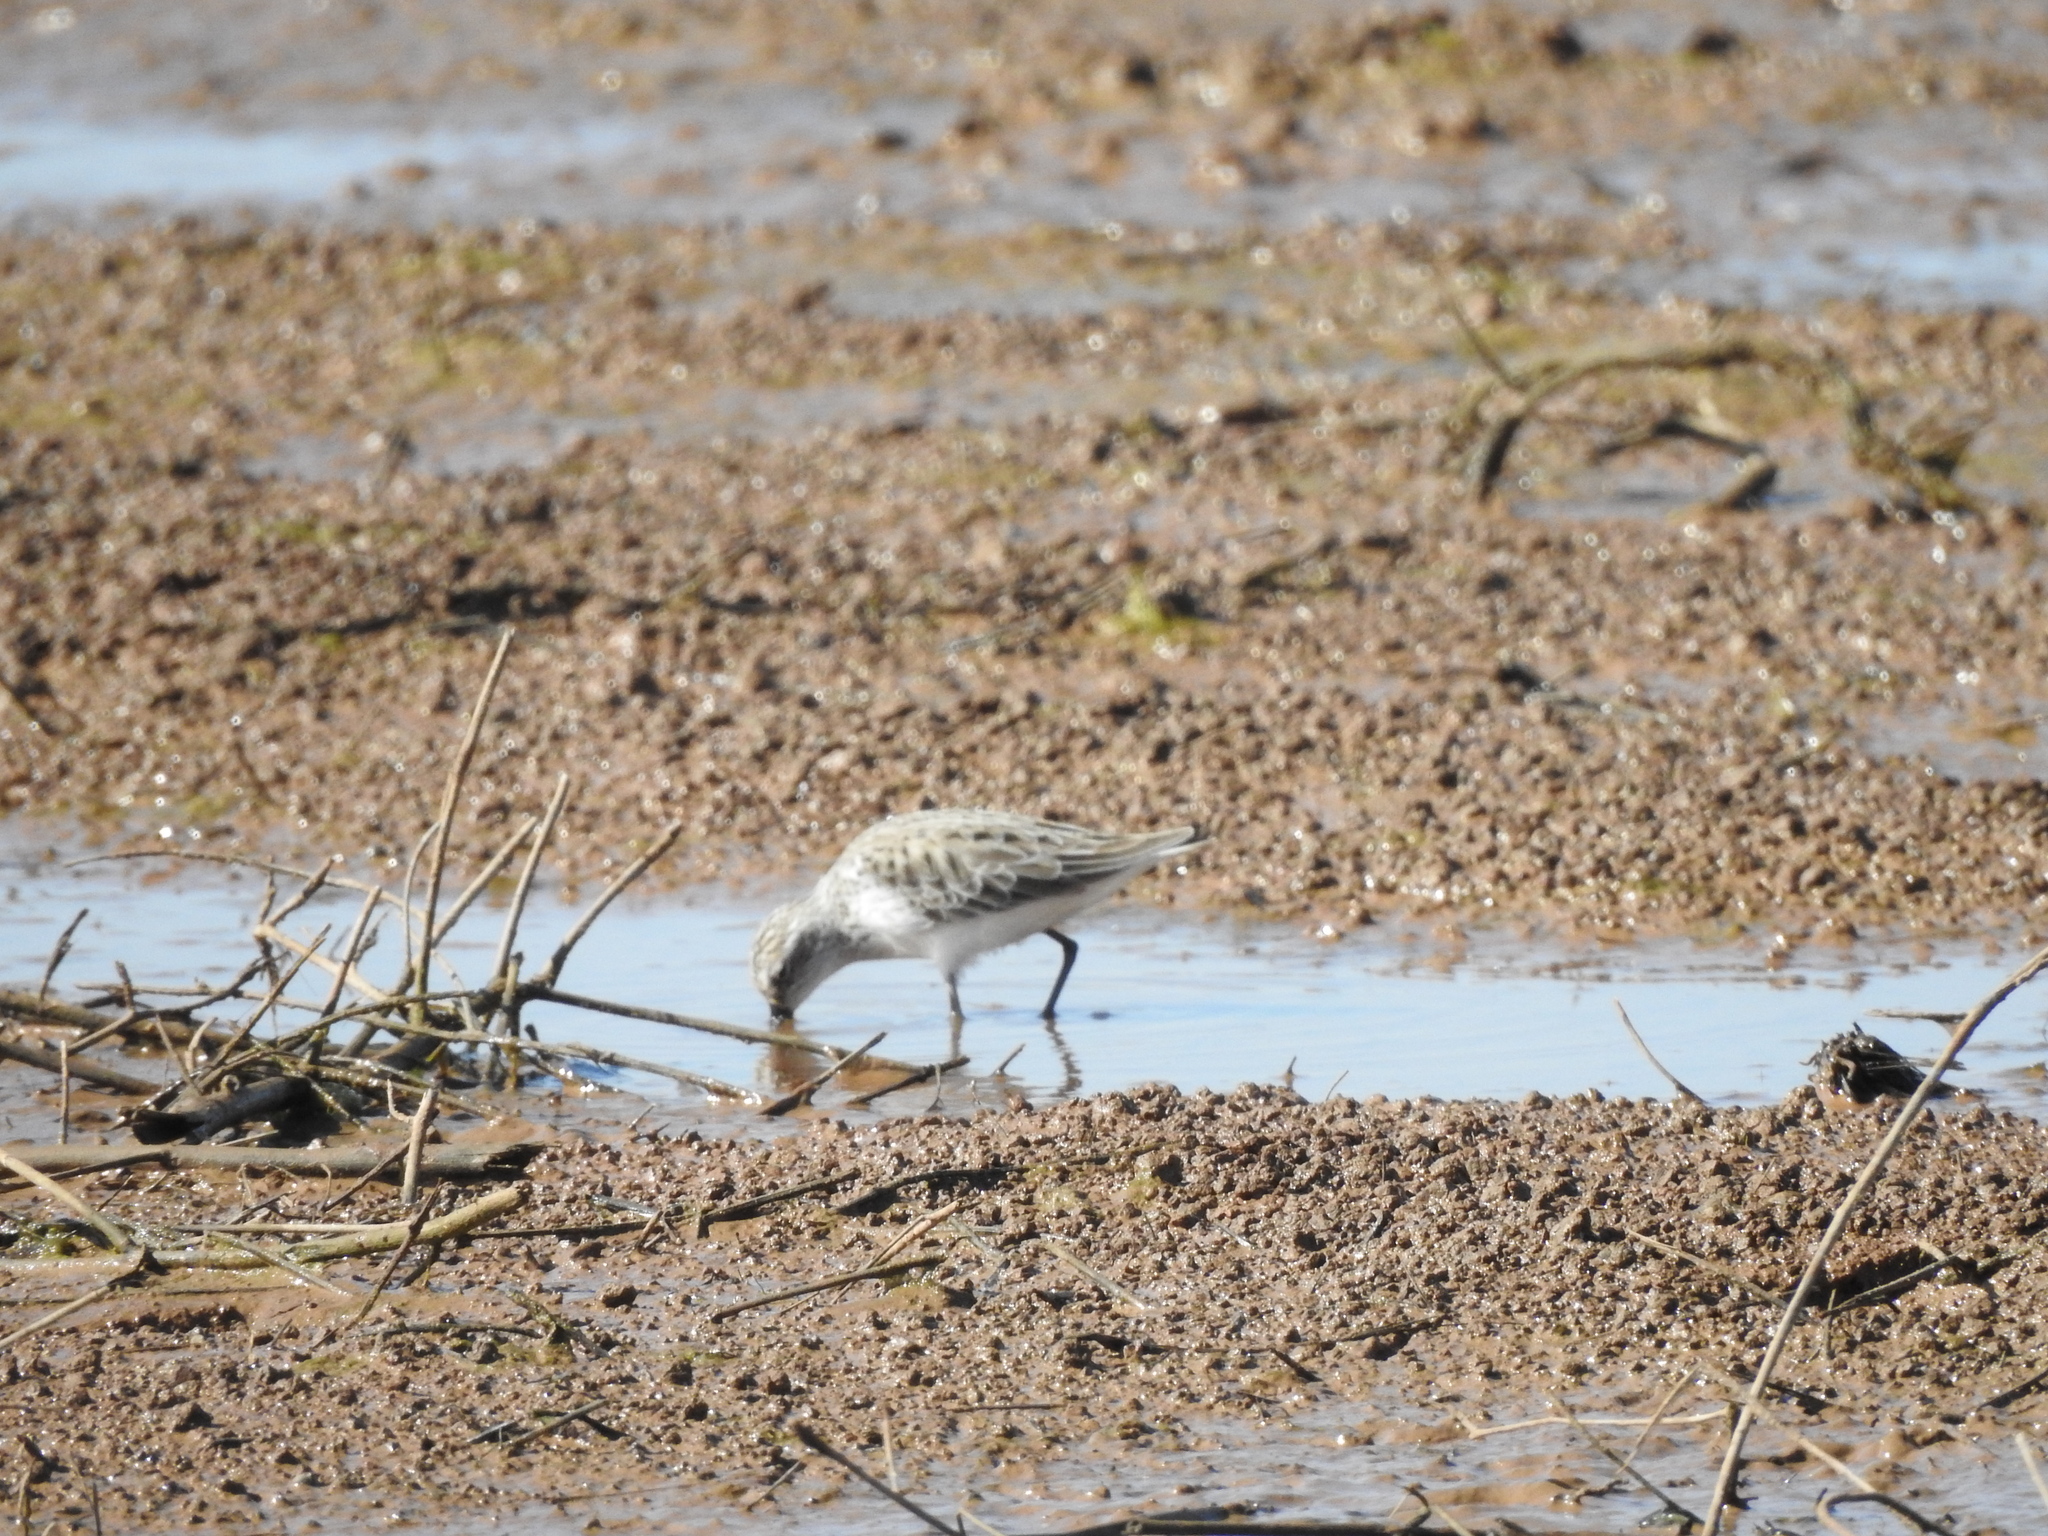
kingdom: Animalia
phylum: Chordata
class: Aves
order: Charadriiformes
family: Scolopacidae
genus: Calidris
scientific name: Calidris pusilla
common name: Semipalmated sandpiper
